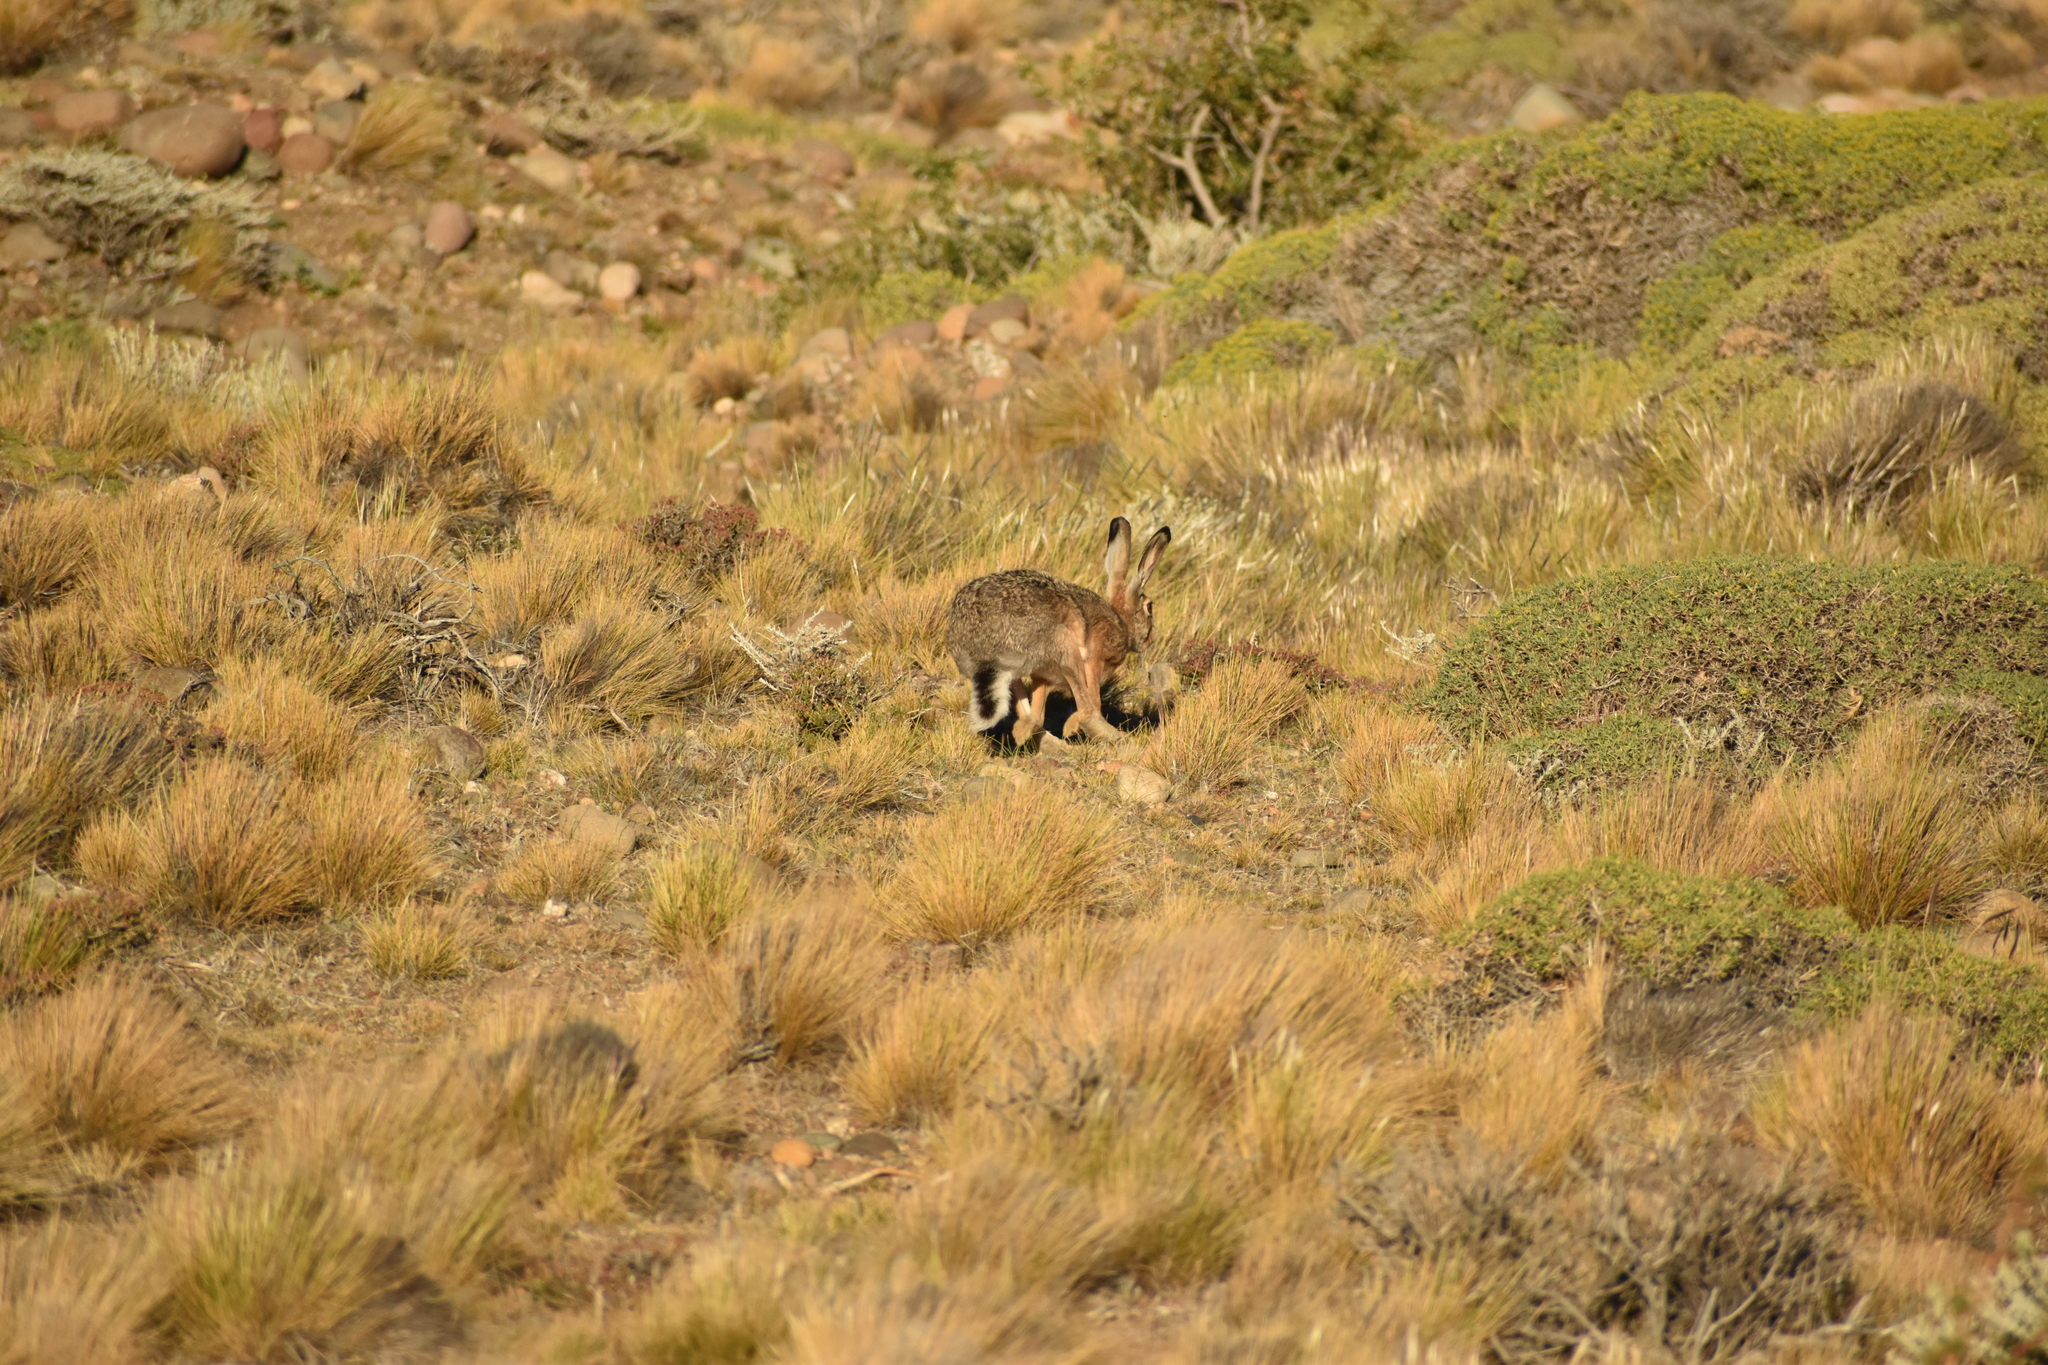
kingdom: Animalia
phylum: Chordata
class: Mammalia
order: Lagomorpha
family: Leporidae
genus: Lepus
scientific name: Lepus europaeus
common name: European hare
